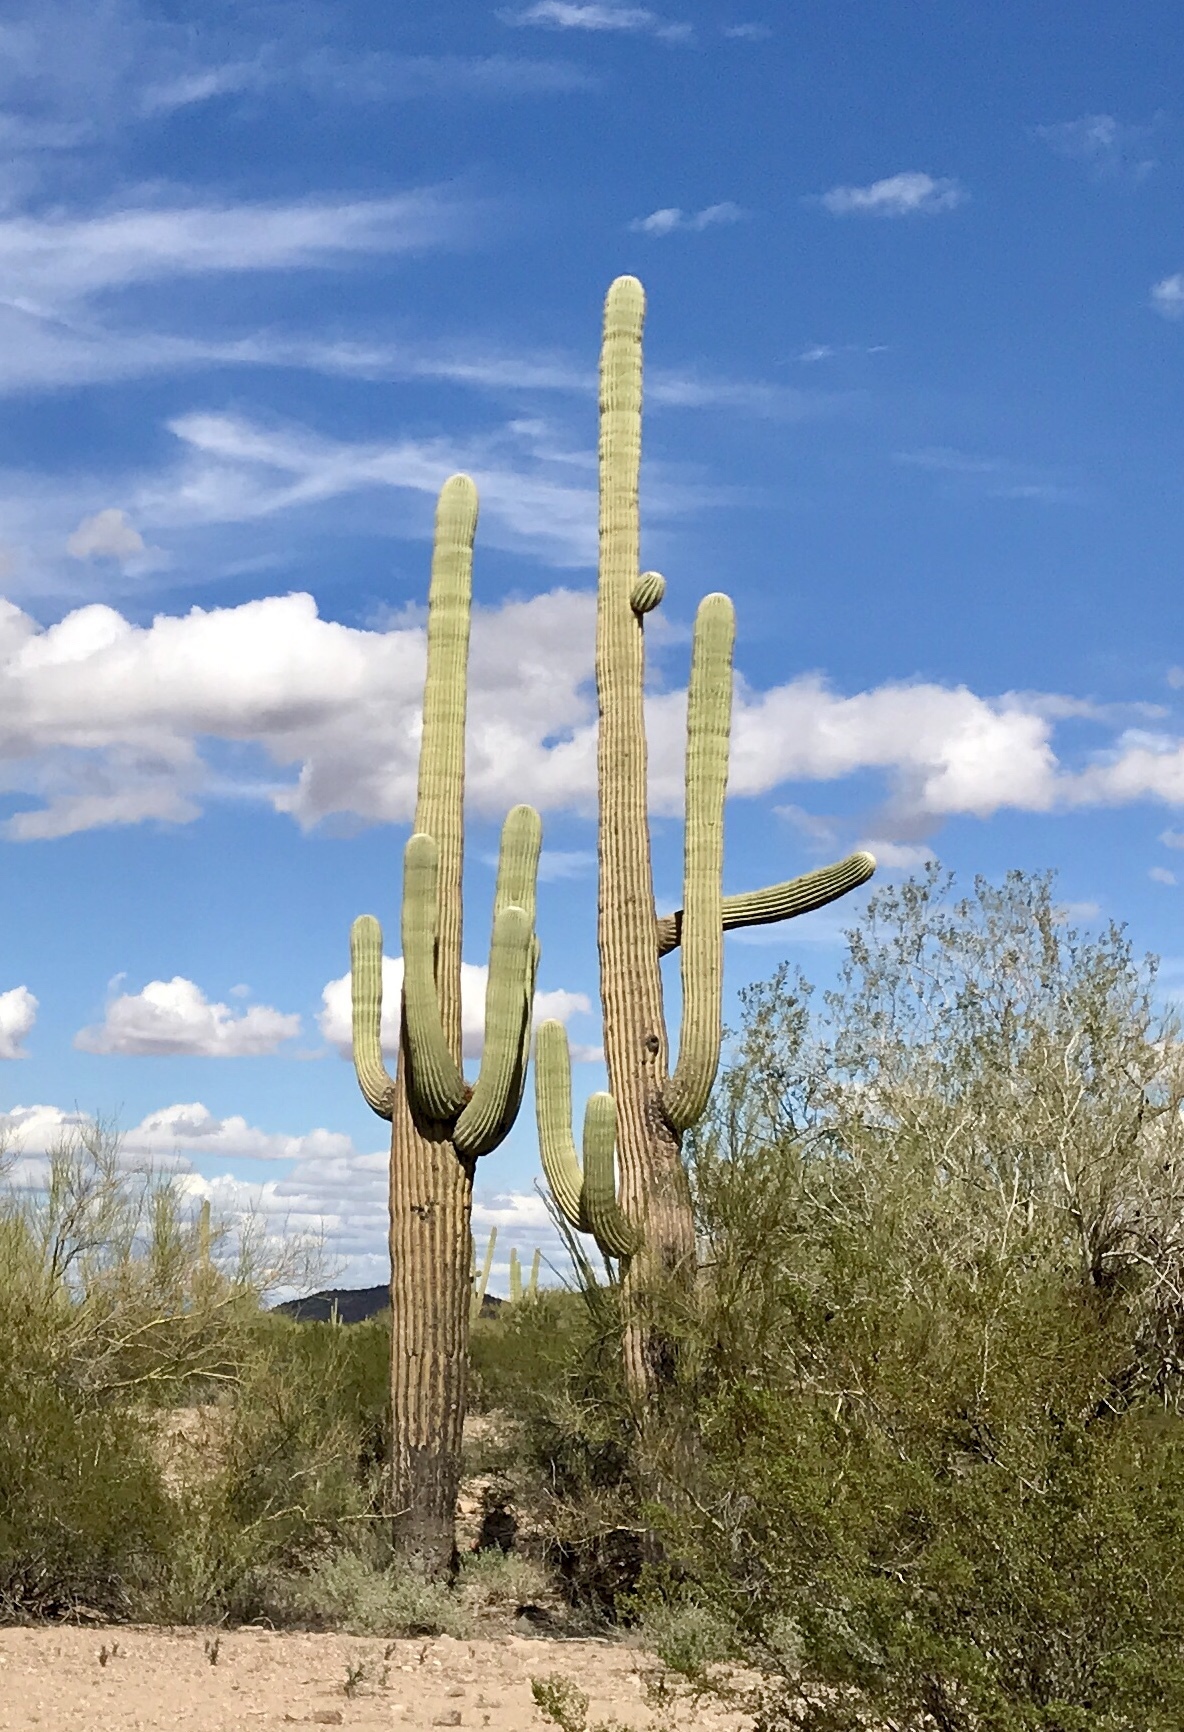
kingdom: Plantae
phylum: Tracheophyta
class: Magnoliopsida
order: Caryophyllales
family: Cactaceae
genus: Carnegiea
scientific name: Carnegiea gigantea
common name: Saguaro
